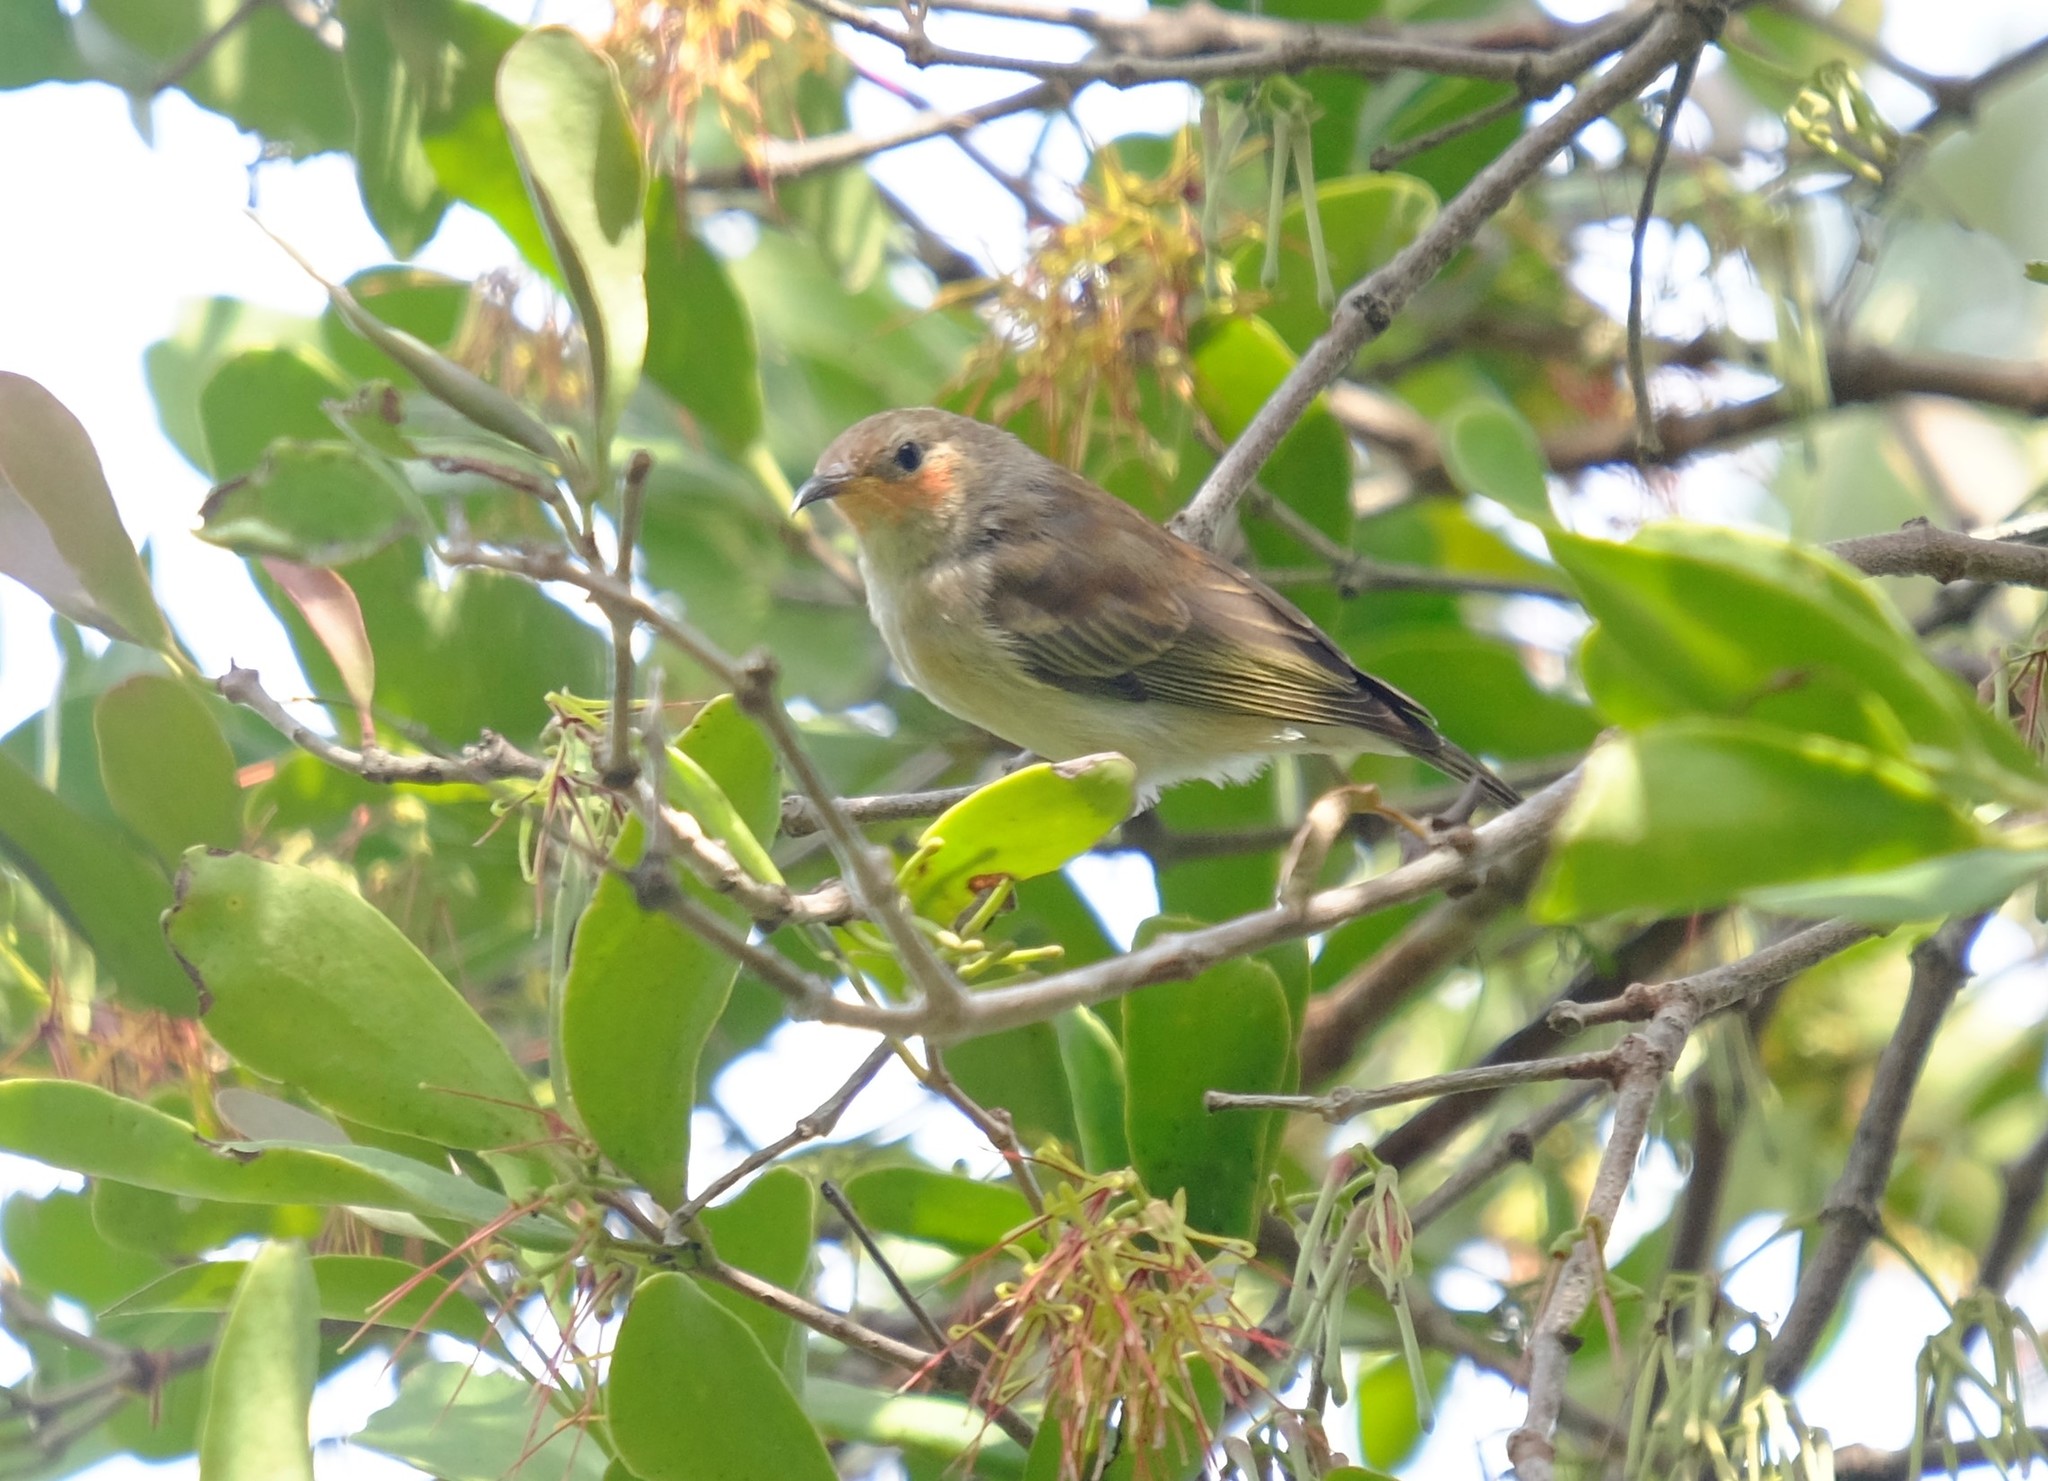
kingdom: Animalia
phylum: Chordata
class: Aves
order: Passeriformes
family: Meliphagidae
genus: Myzomela
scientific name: Myzomela sanguinolenta
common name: Scarlet myzomela
